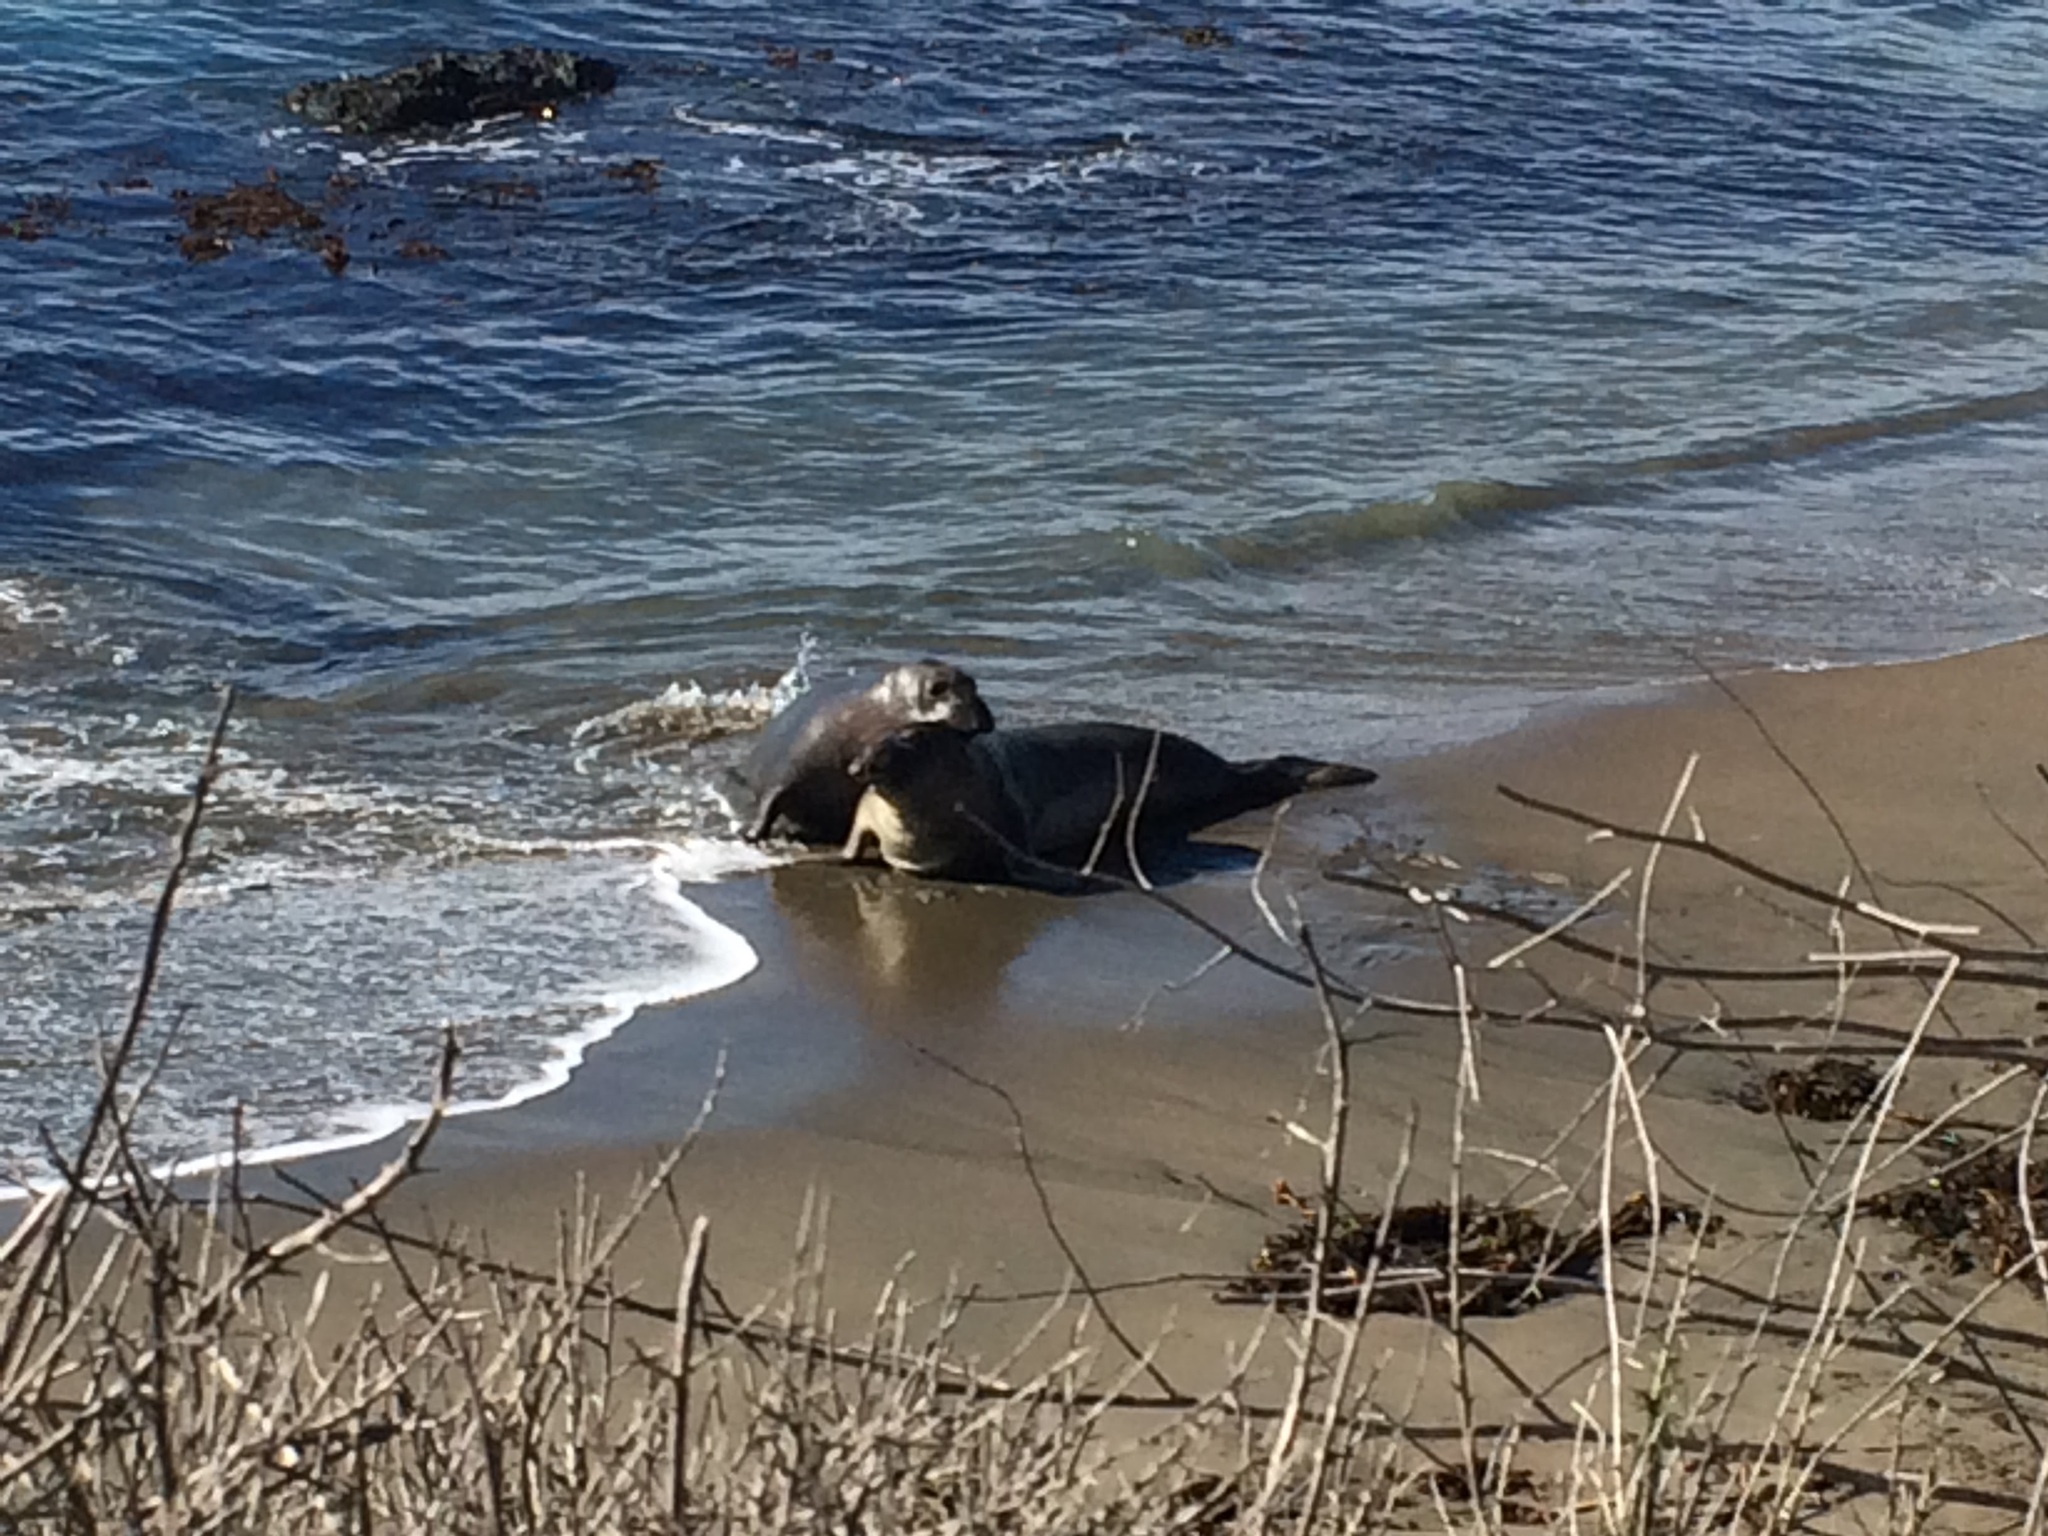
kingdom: Animalia
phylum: Chordata
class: Mammalia
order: Carnivora
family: Phocidae
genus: Mirounga
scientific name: Mirounga angustirostris
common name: Northern elephant seal
